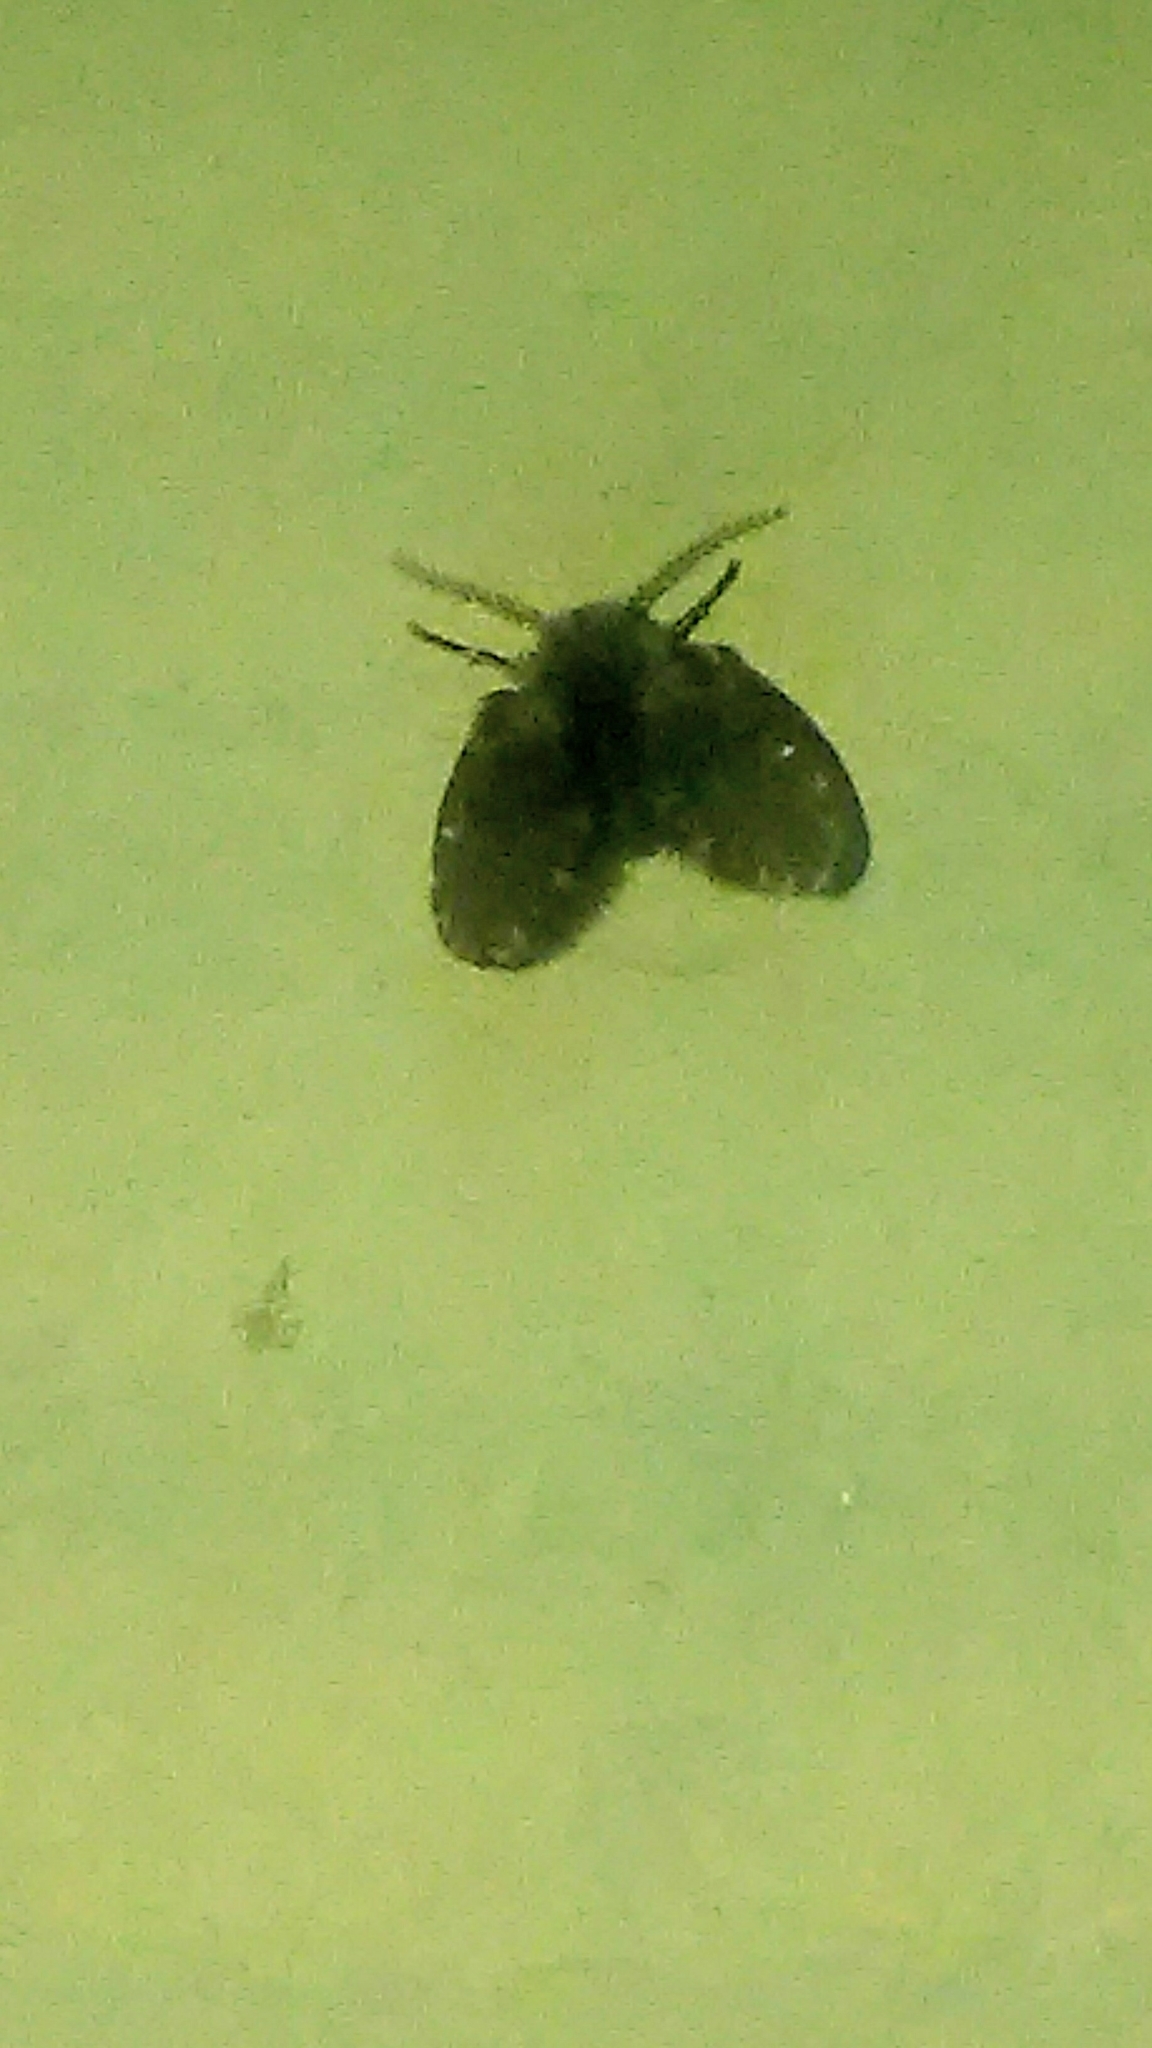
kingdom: Animalia
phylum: Arthropoda
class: Insecta
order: Diptera
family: Psychodidae
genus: Clogmia
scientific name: Clogmia albipunctatus
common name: White-spotted moth fly
